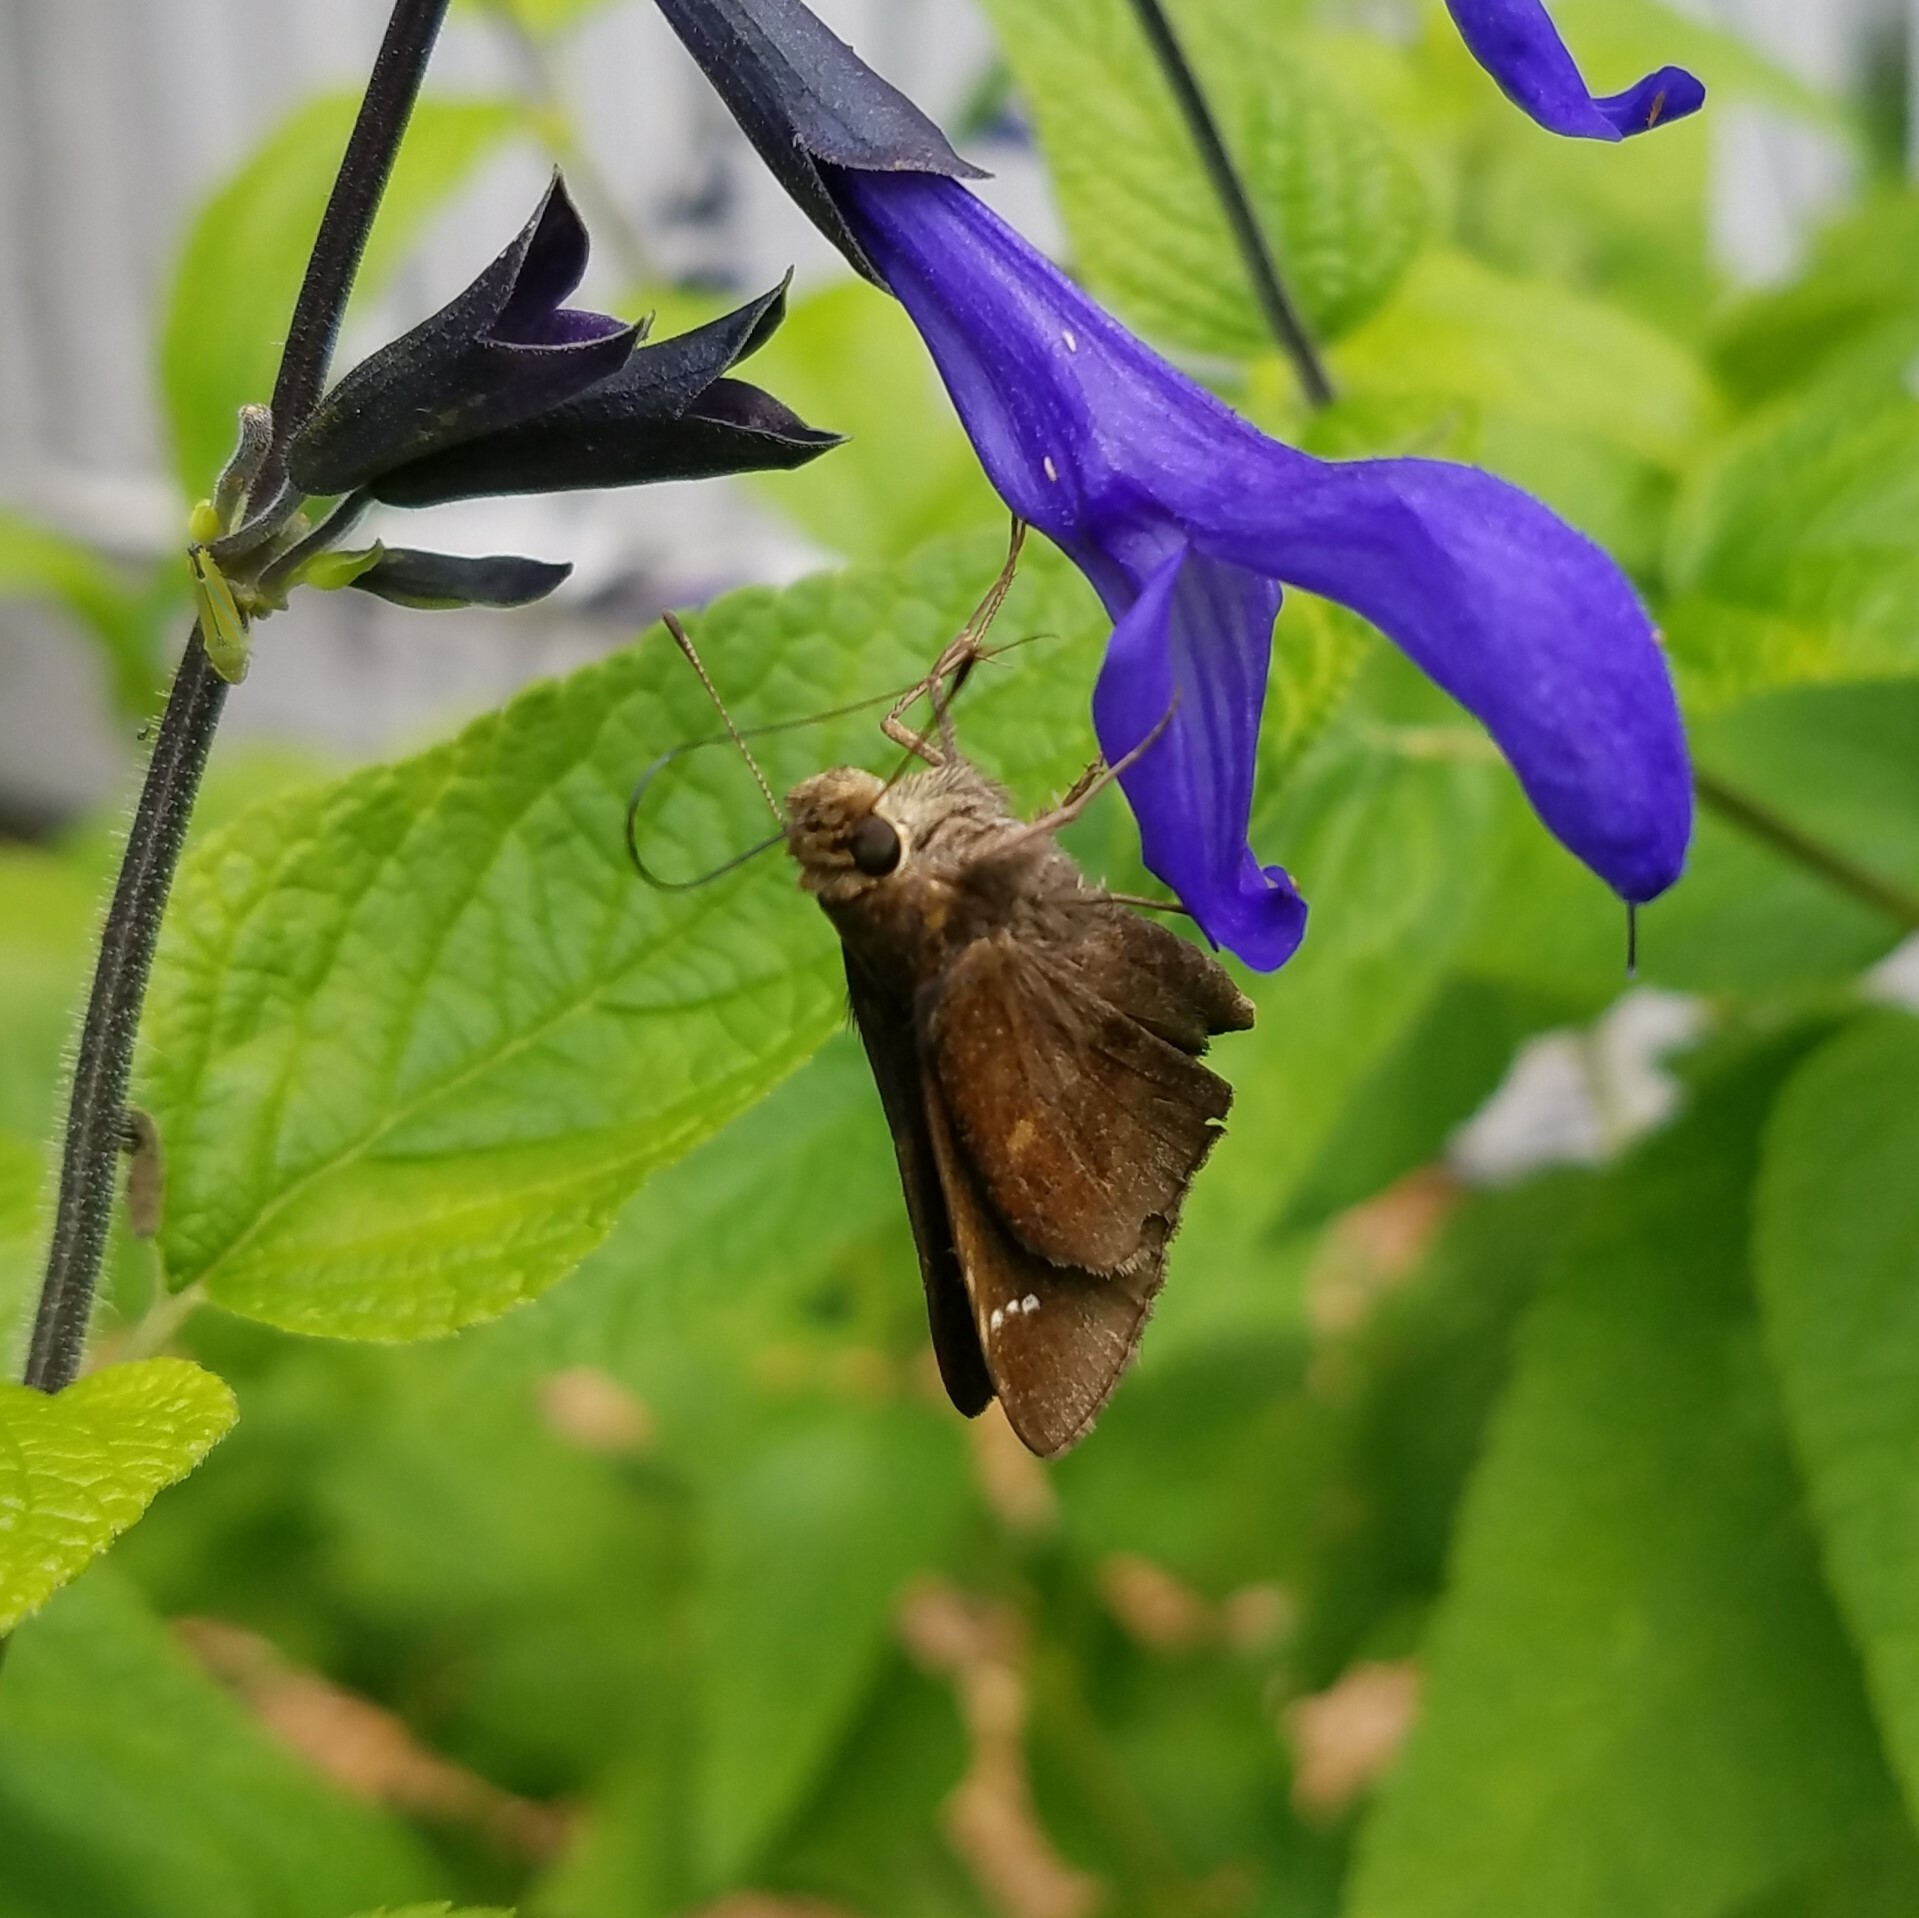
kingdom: Animalia
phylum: Arthropoda
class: Insecta
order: Lepidoptera
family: Hesperiidae
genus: Lerema
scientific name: Lerema accius
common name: Clouded skipper
